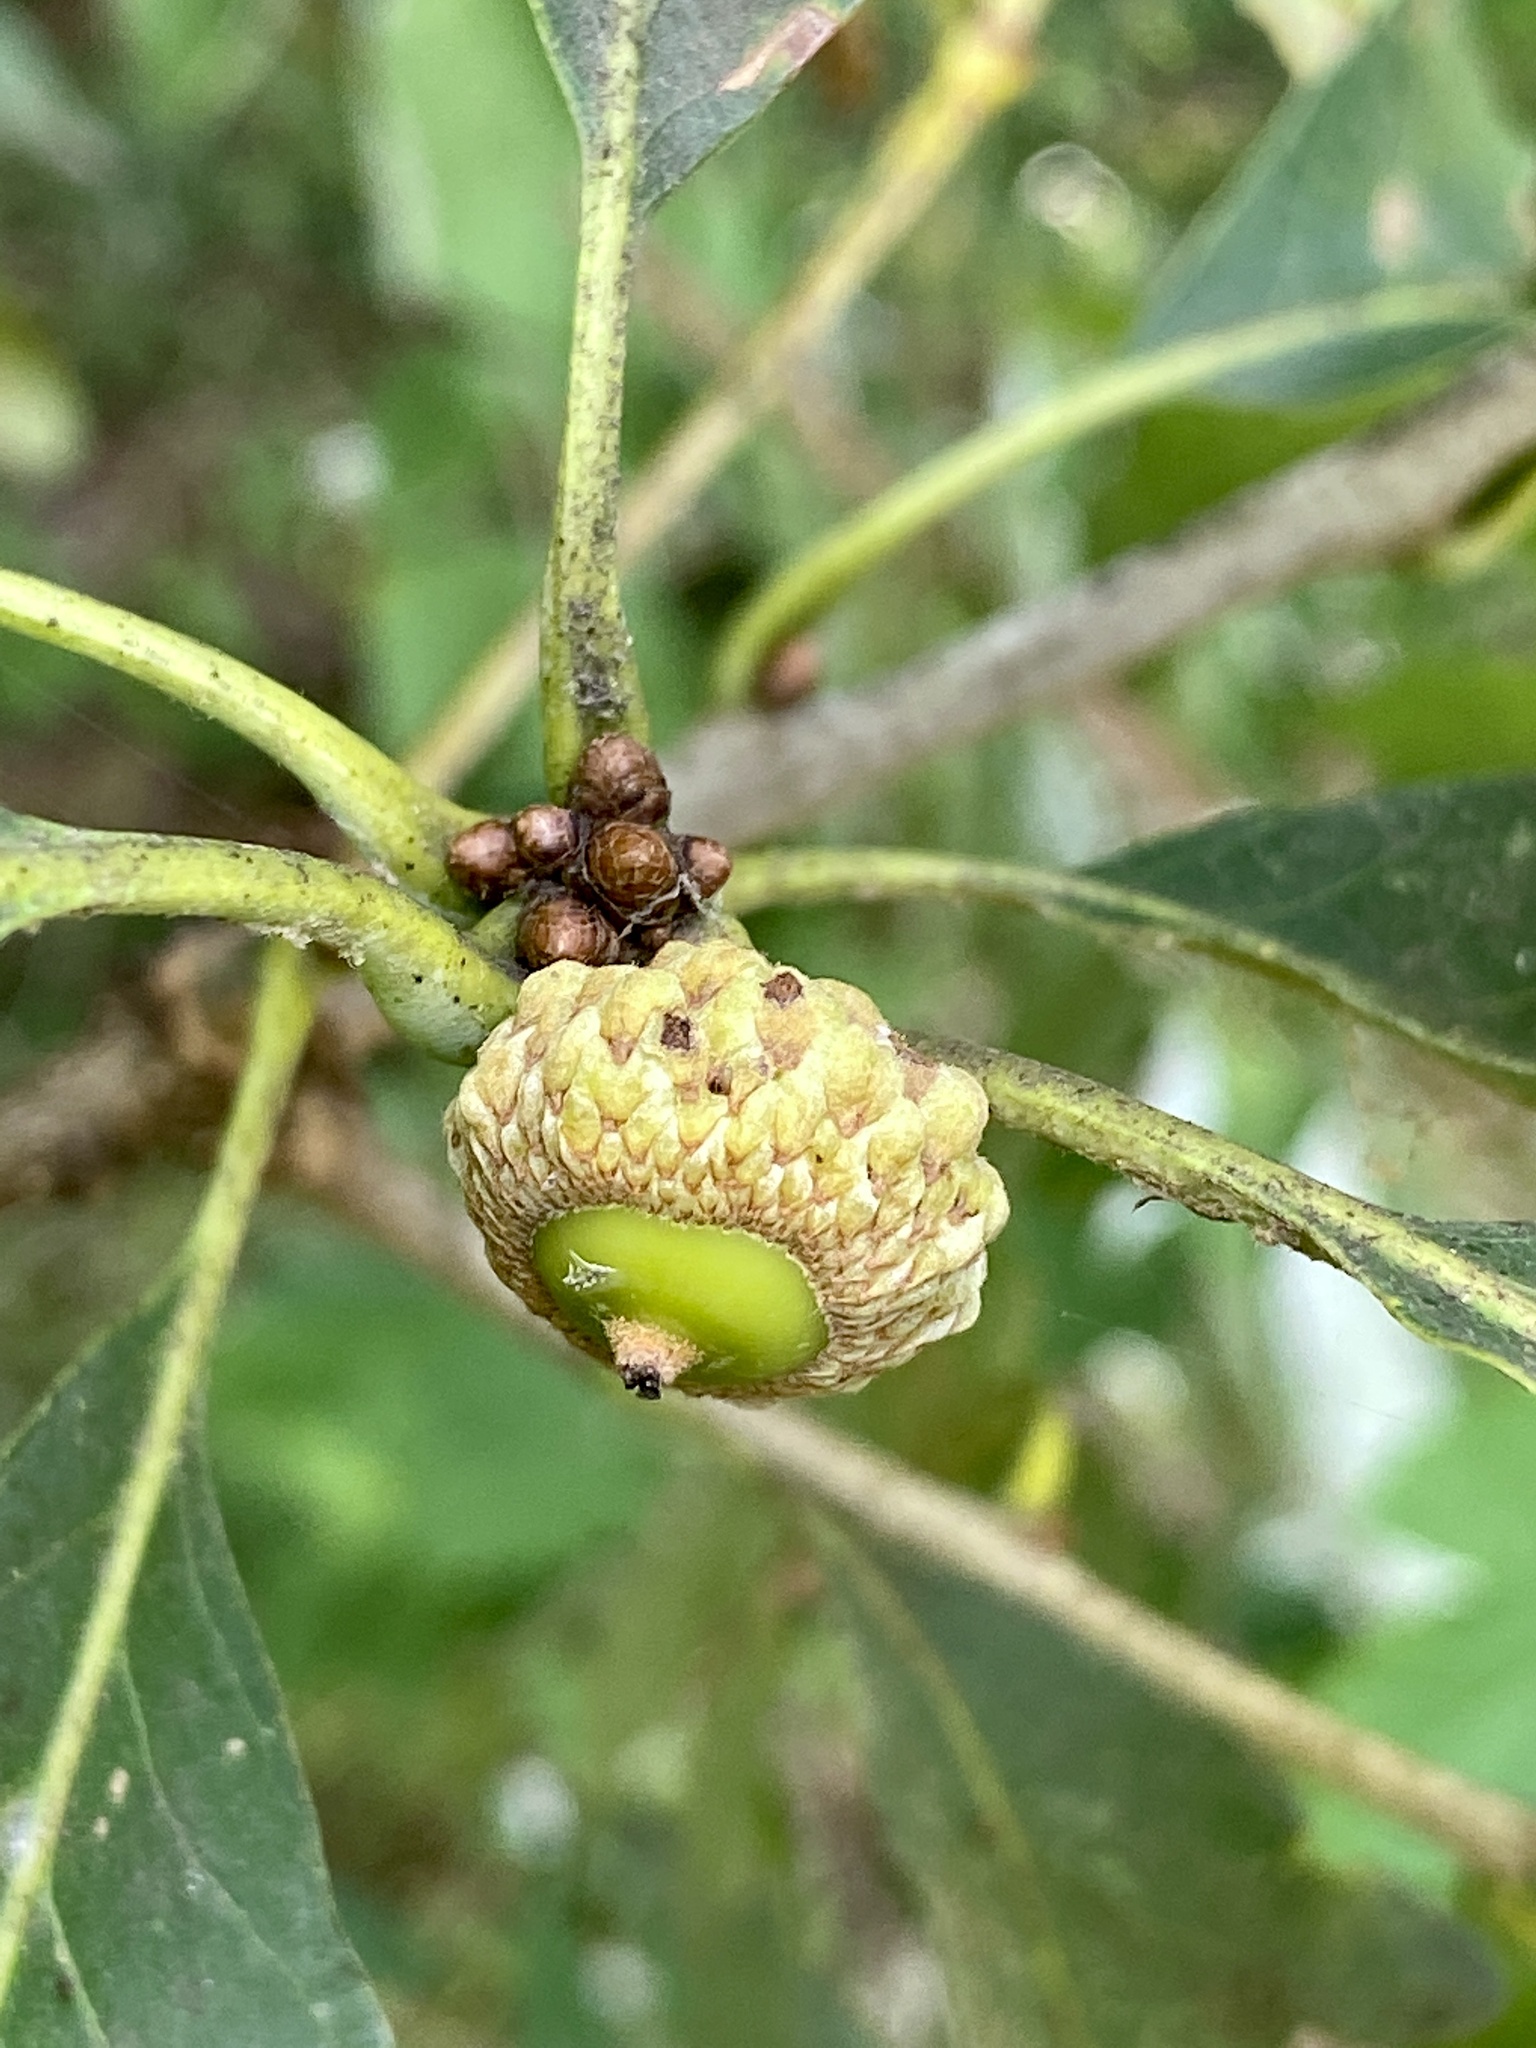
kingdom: Plantae
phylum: Tracheophyta
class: Magnoliopsida
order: Fagales
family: Fagaceae
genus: Quercus
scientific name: Quercus alba
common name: White oak
